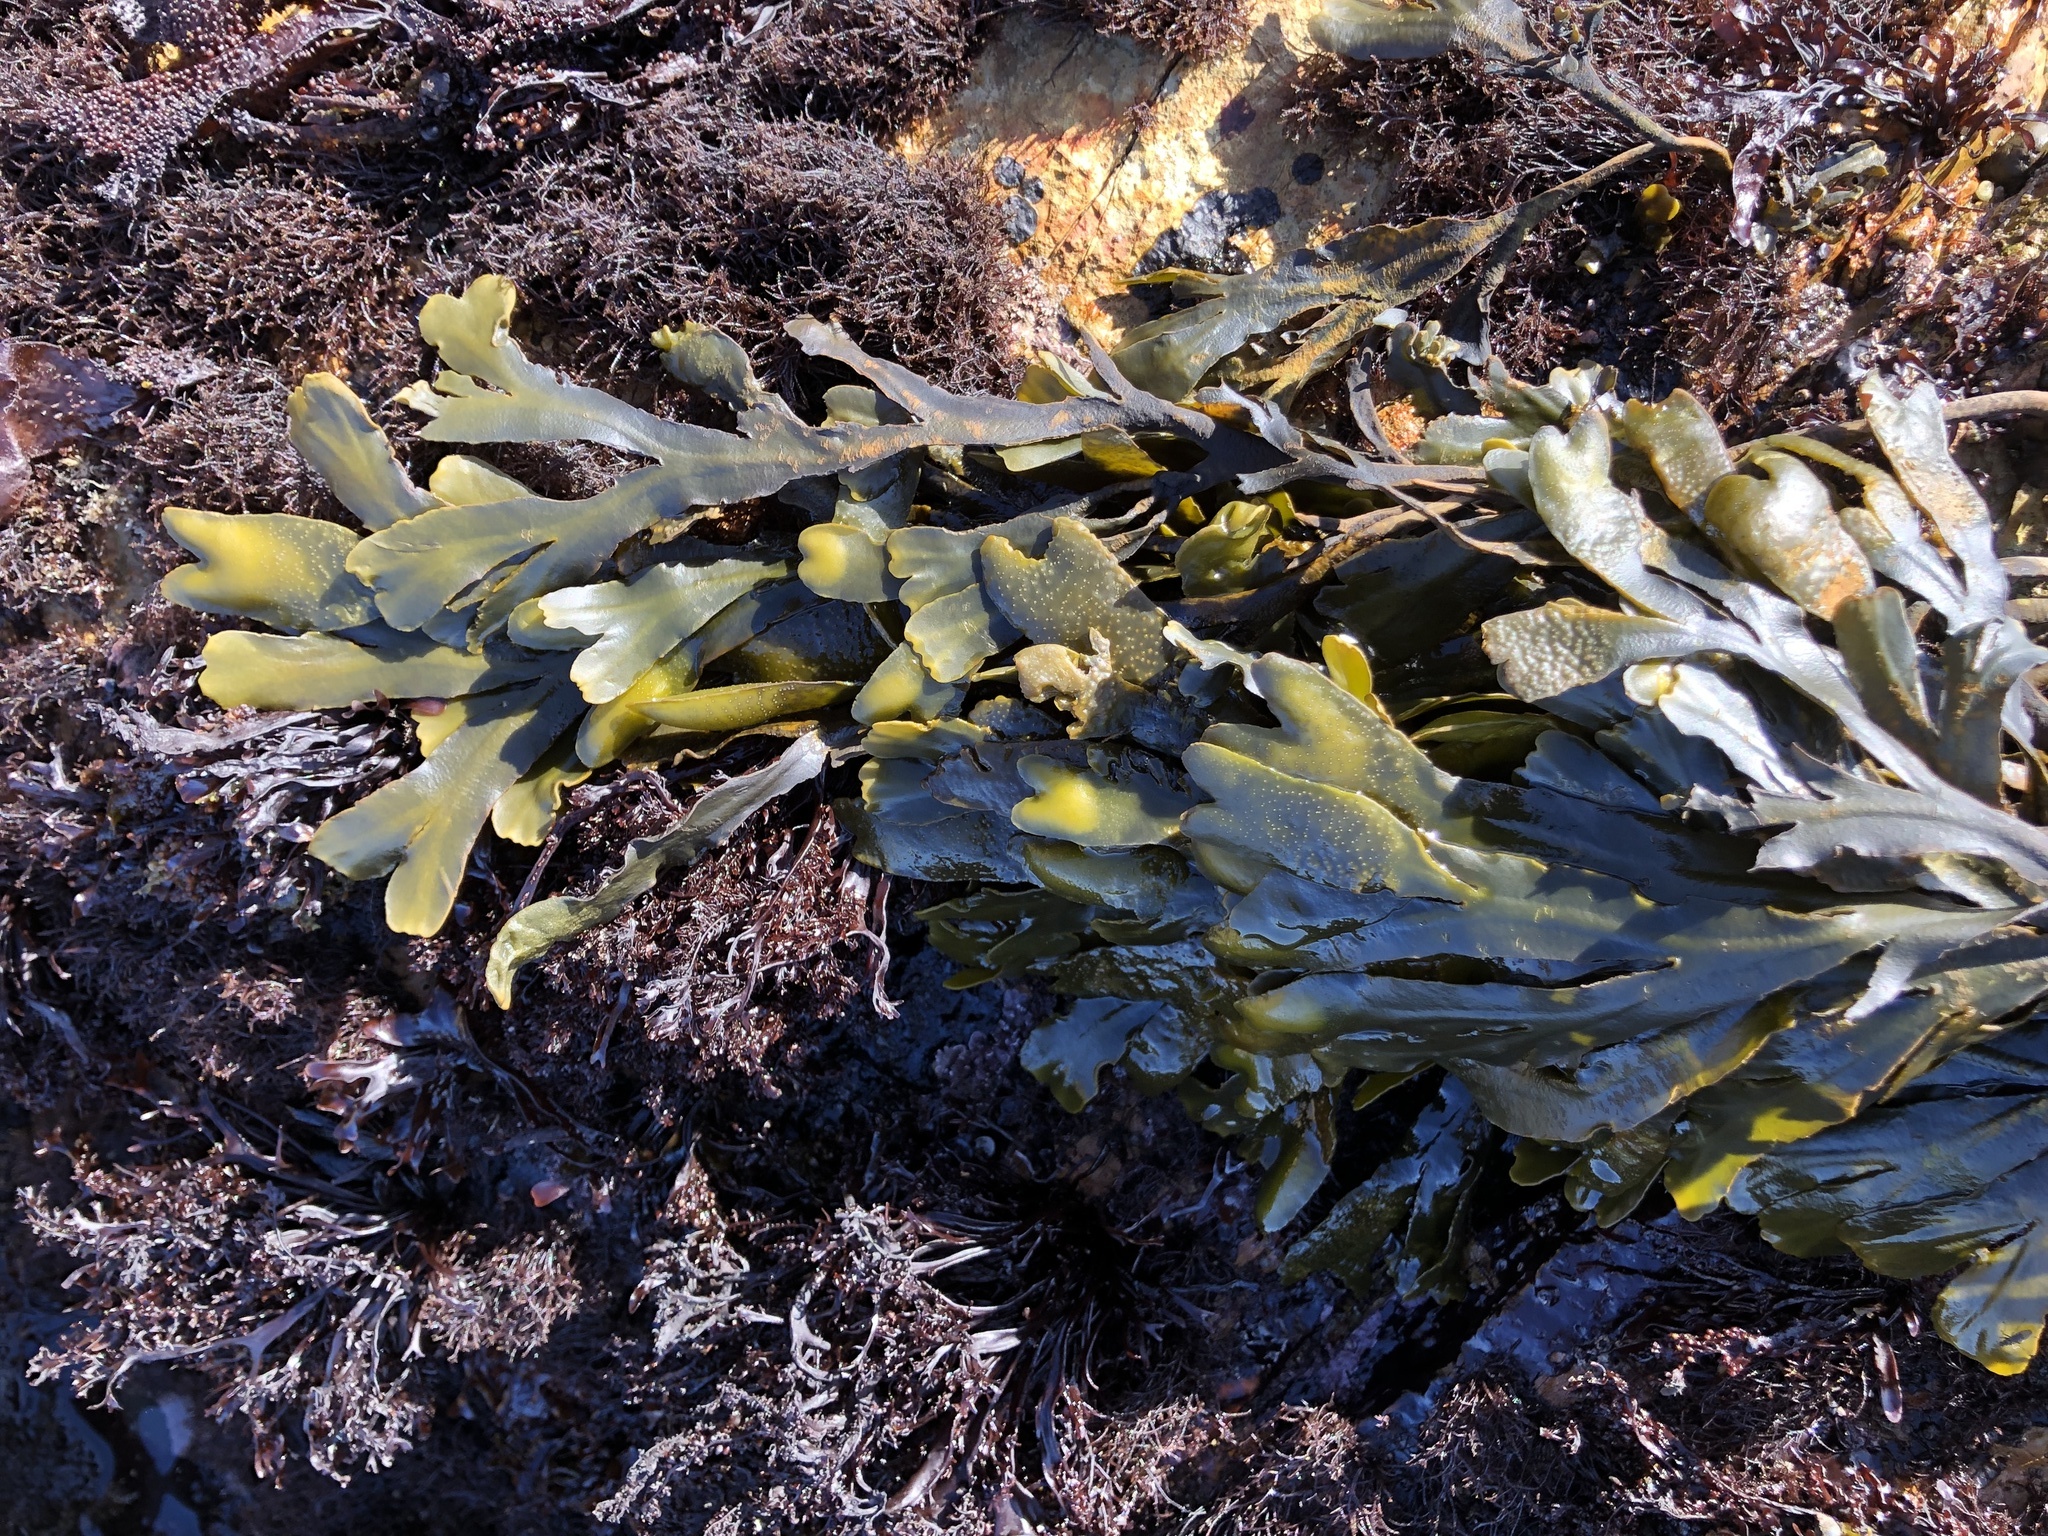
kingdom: Chromista
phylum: Ochrophyta
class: Phaeophyceae
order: Fucales
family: Fucaceae
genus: Fucus
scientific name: Fucus distichus
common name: Rockweed
